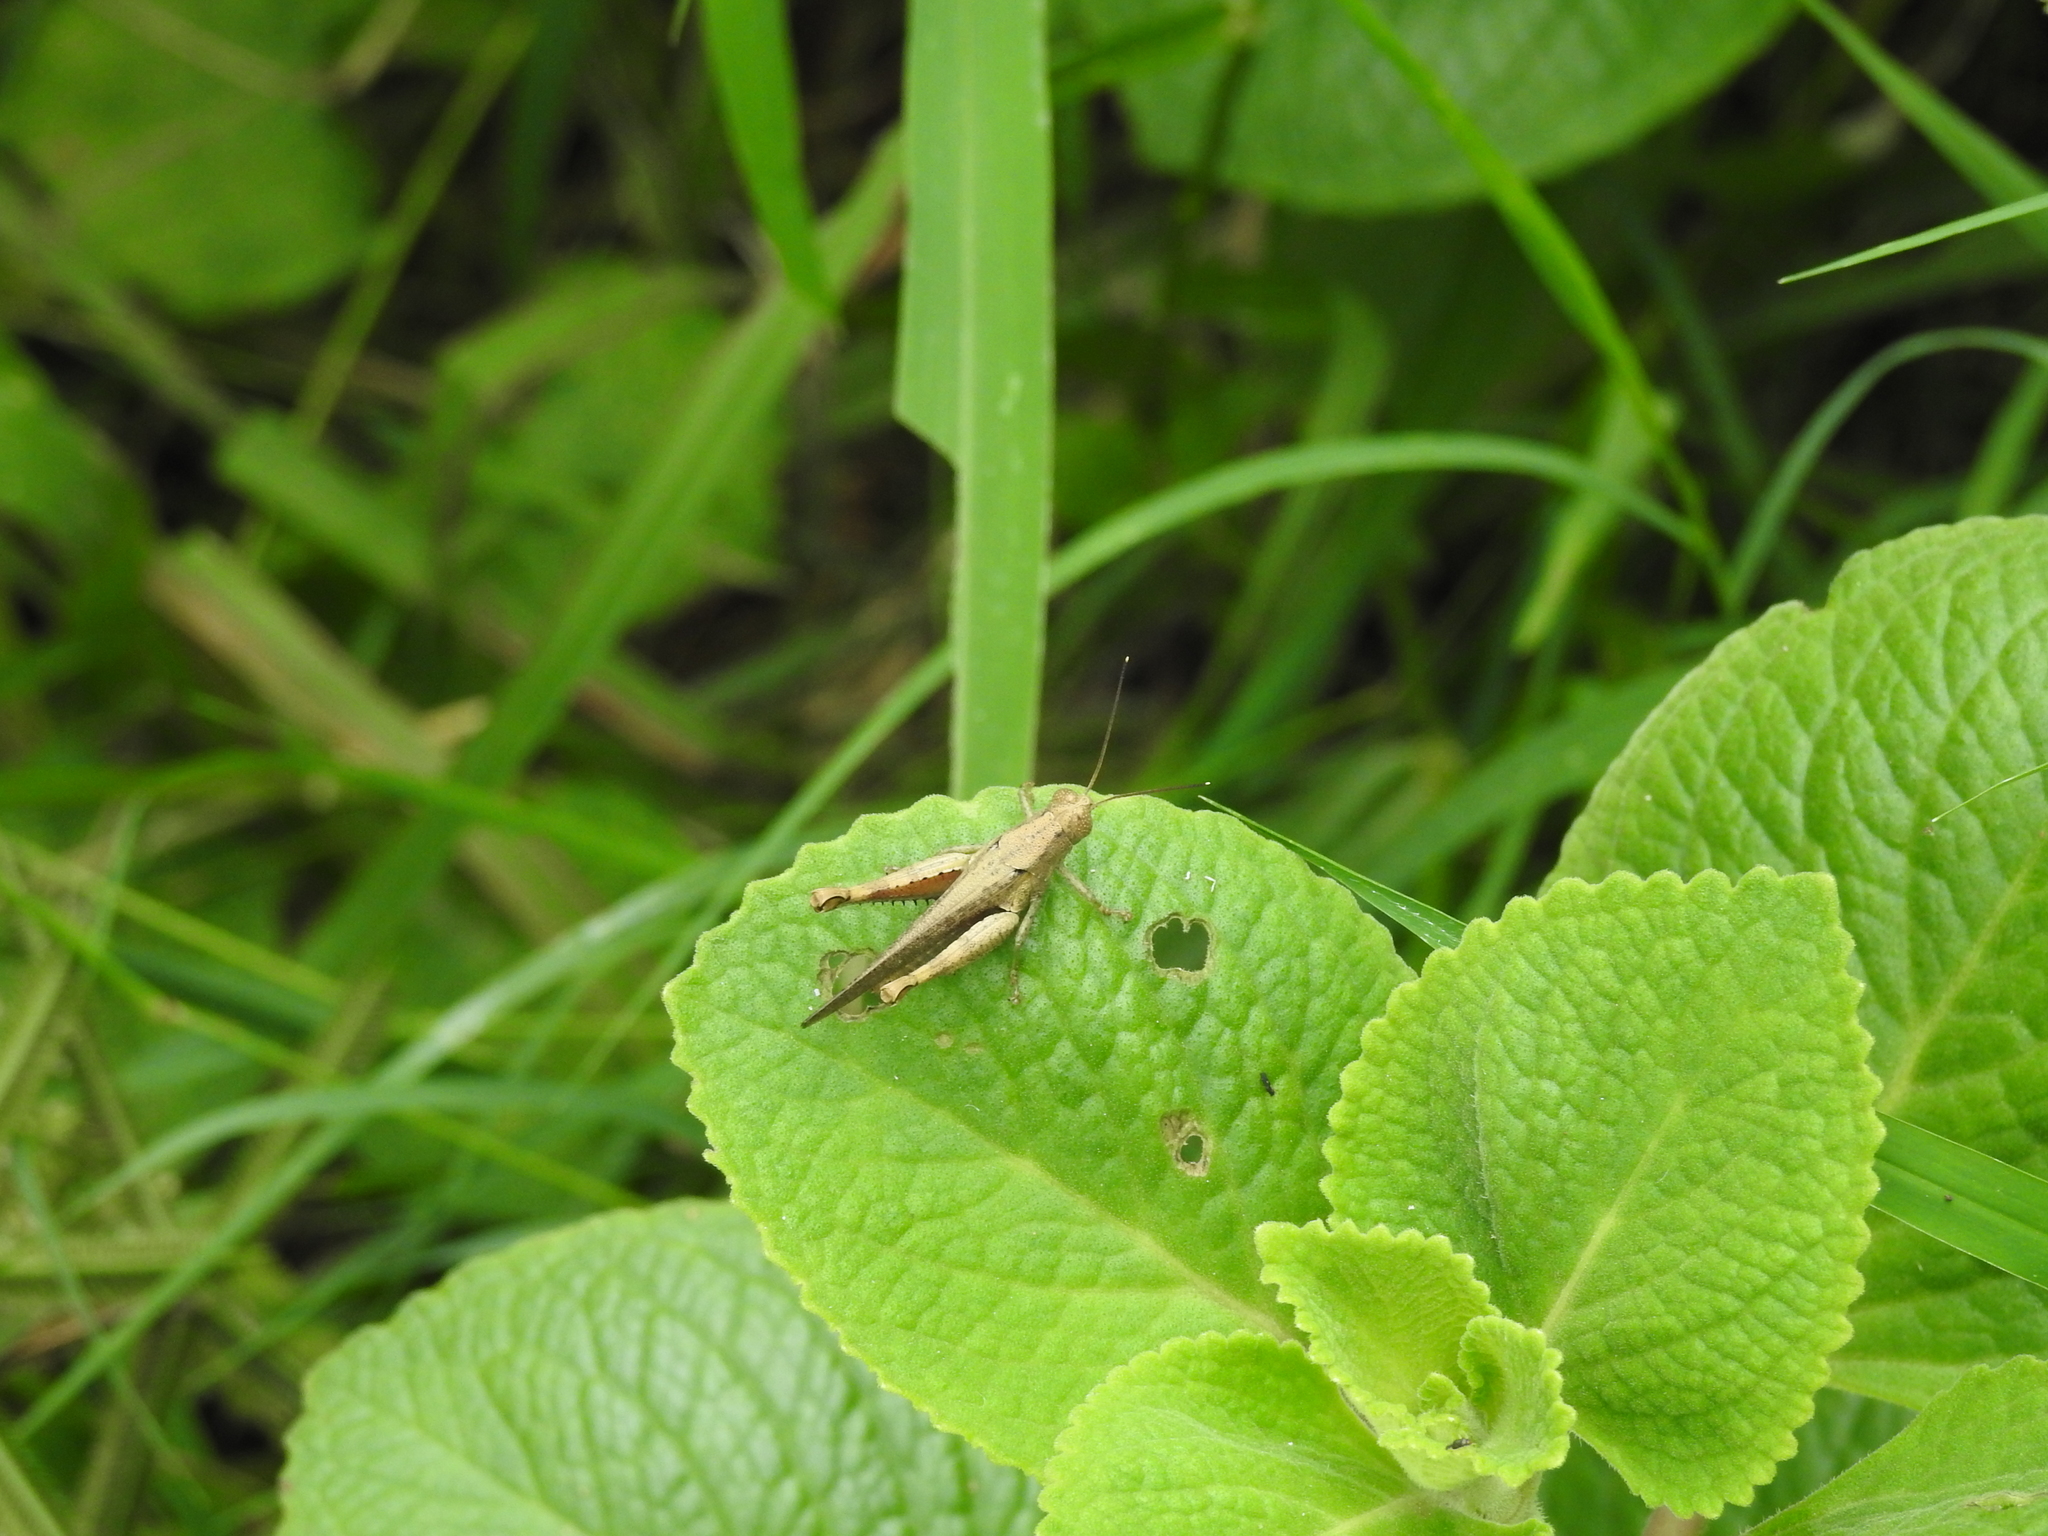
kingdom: Animalia
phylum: Arthropoda
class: Insecta
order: Orthoptera
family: Acrididae
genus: Pirithoicus
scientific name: Pirithoicus ophthalmicus
